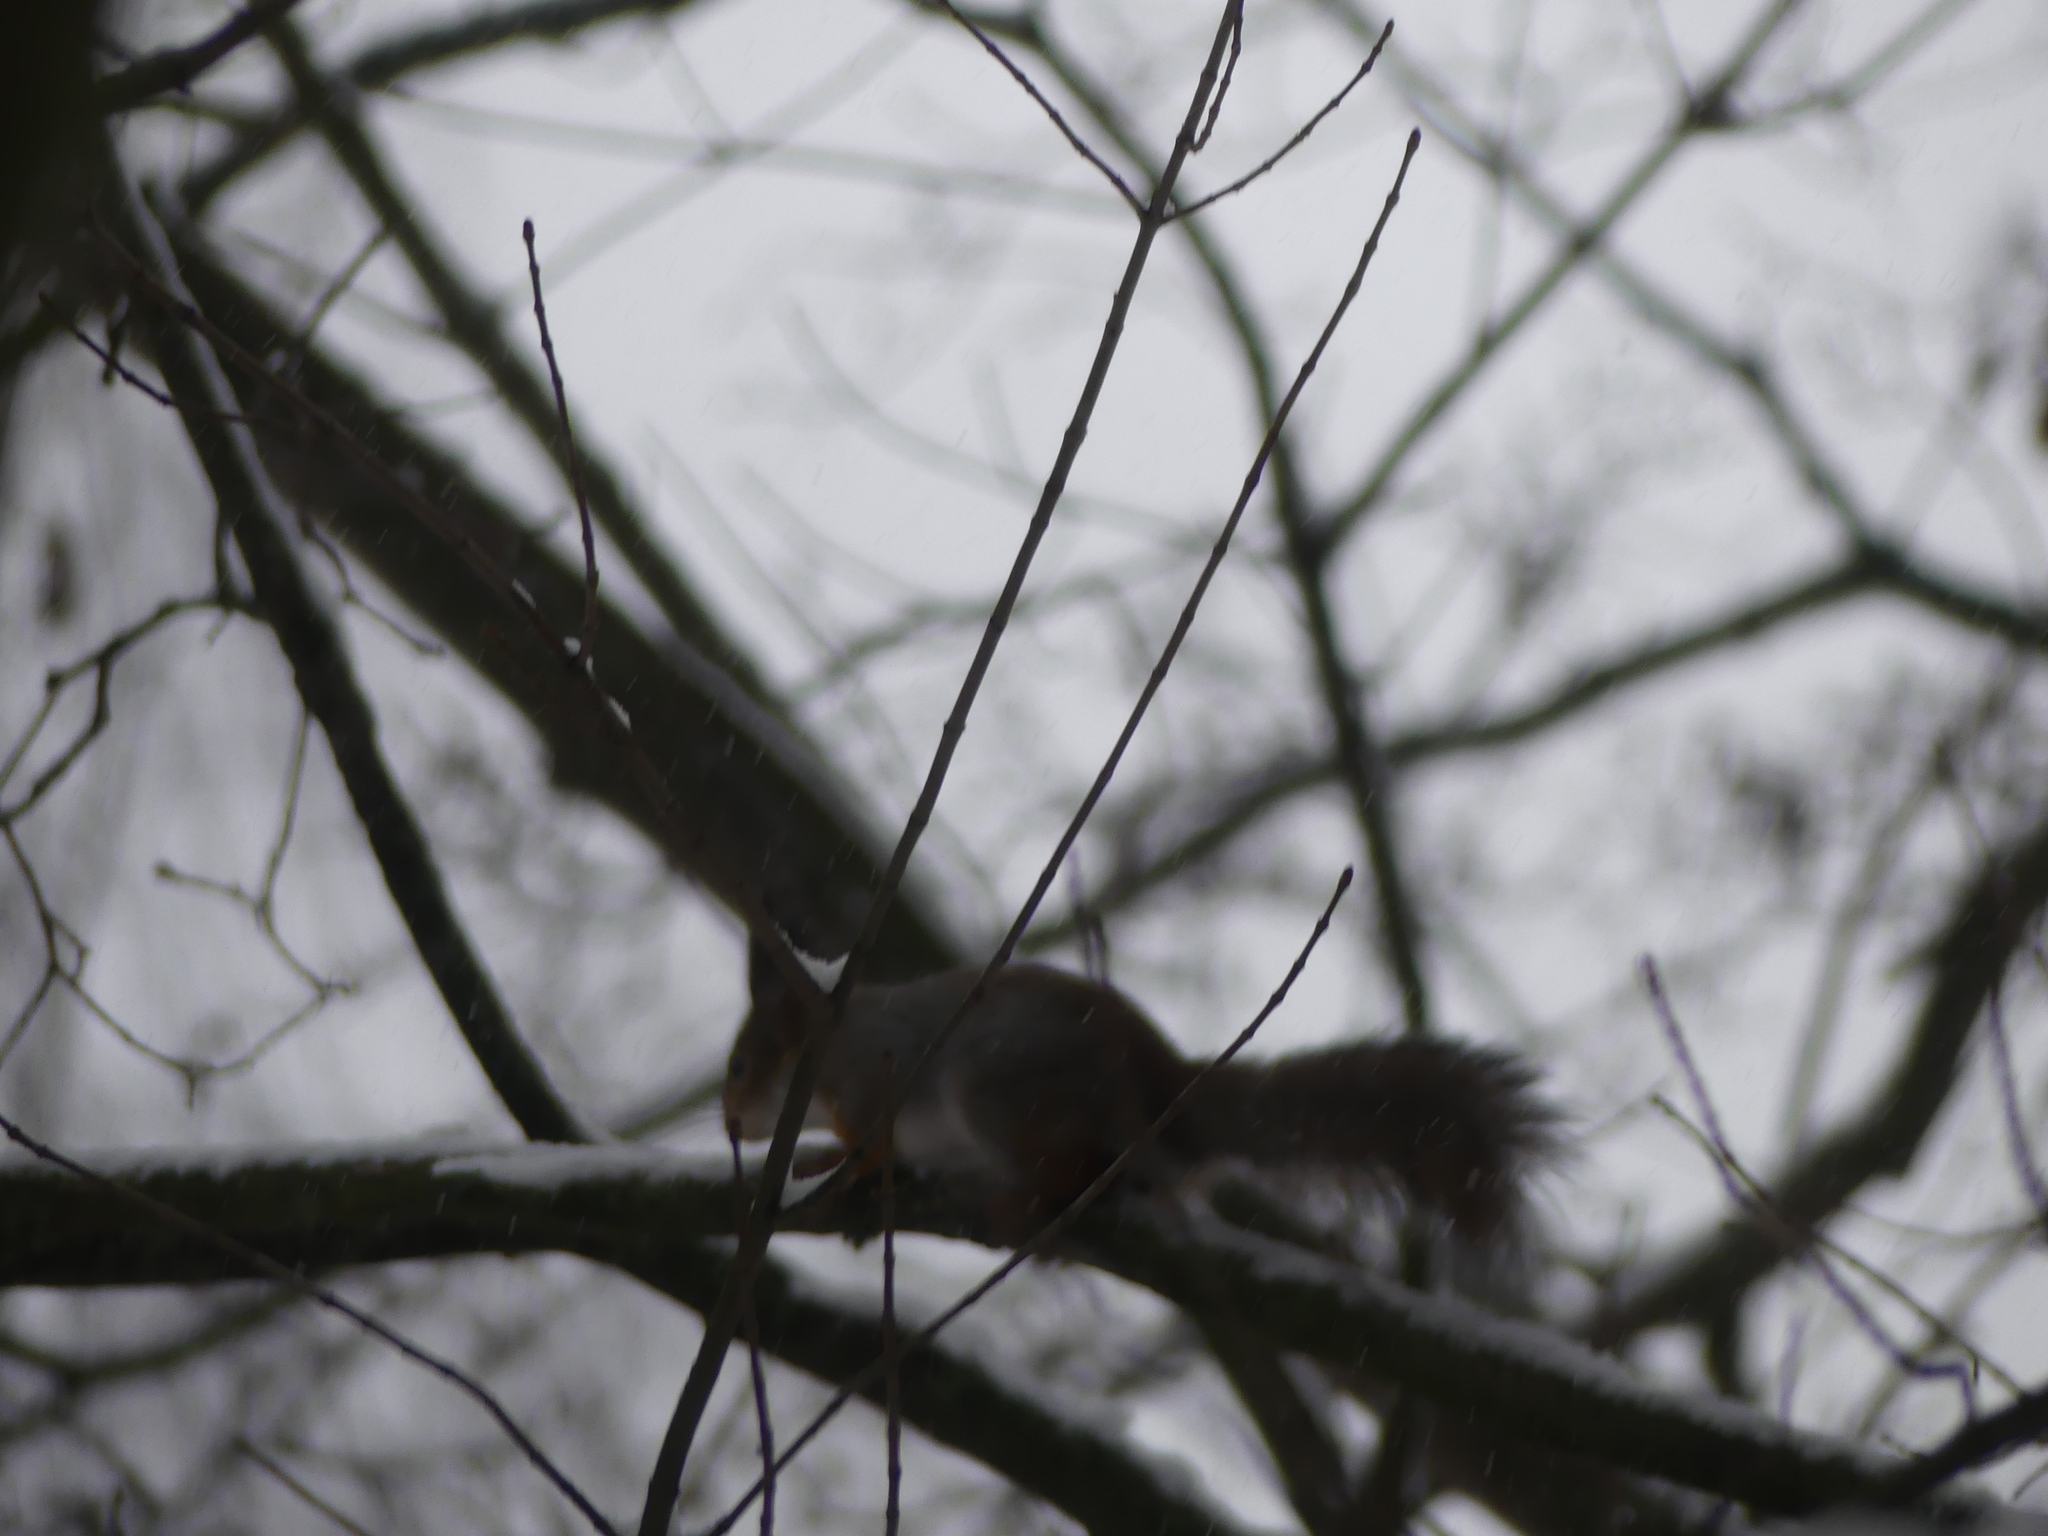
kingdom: Animalia
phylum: Chordata
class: Mammalia
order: Rodentia
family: Sciuridae
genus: Sciurus
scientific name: Sciurus vulgaris
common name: Eurasian red squirrel
